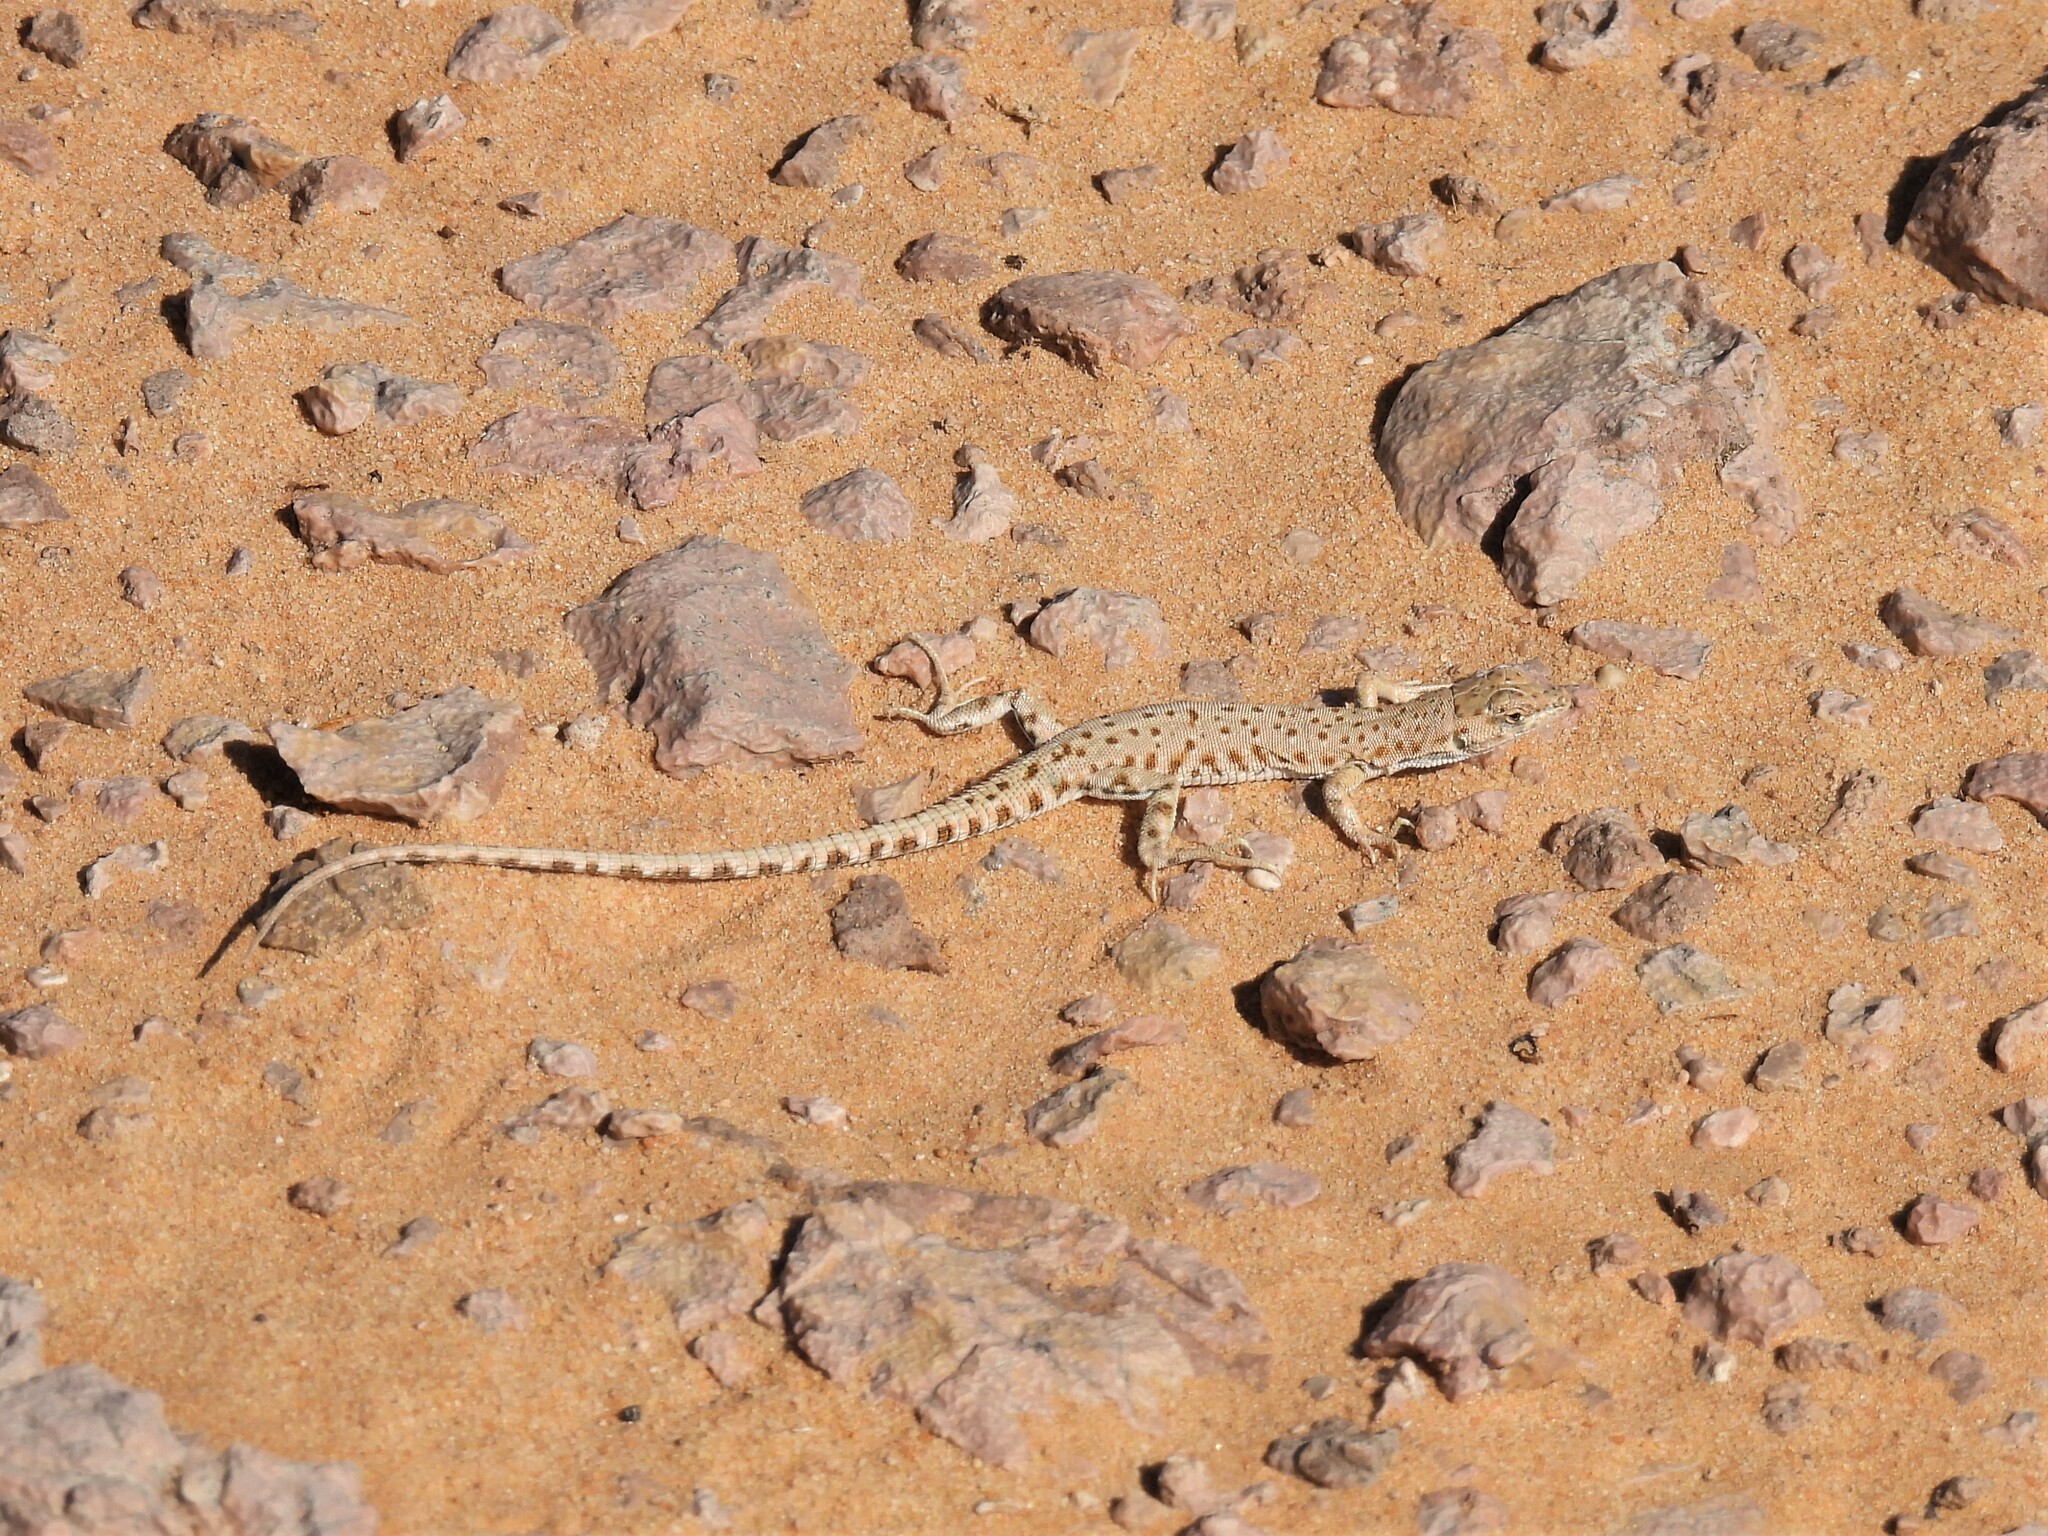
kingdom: Animalia
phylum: Chordata
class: Squamata
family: Lacertidae
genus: Mesalina
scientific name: Mesalina brevirostris
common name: Blanford's short-nosed desert lizard
